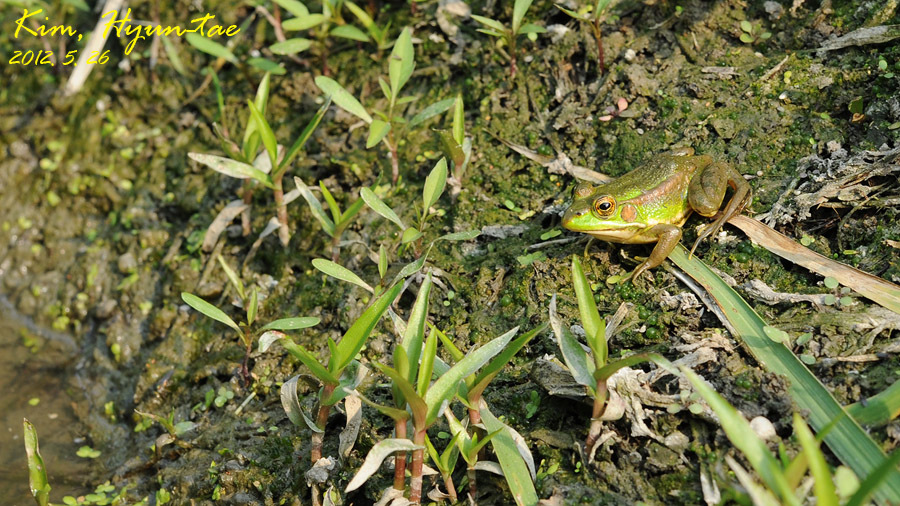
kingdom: Animalia
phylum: Chordata
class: Amphibia
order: Anura
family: Ranidae
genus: Pelophylax
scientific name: Pelophylax chosenicus
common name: Gold-spotted pond frog
